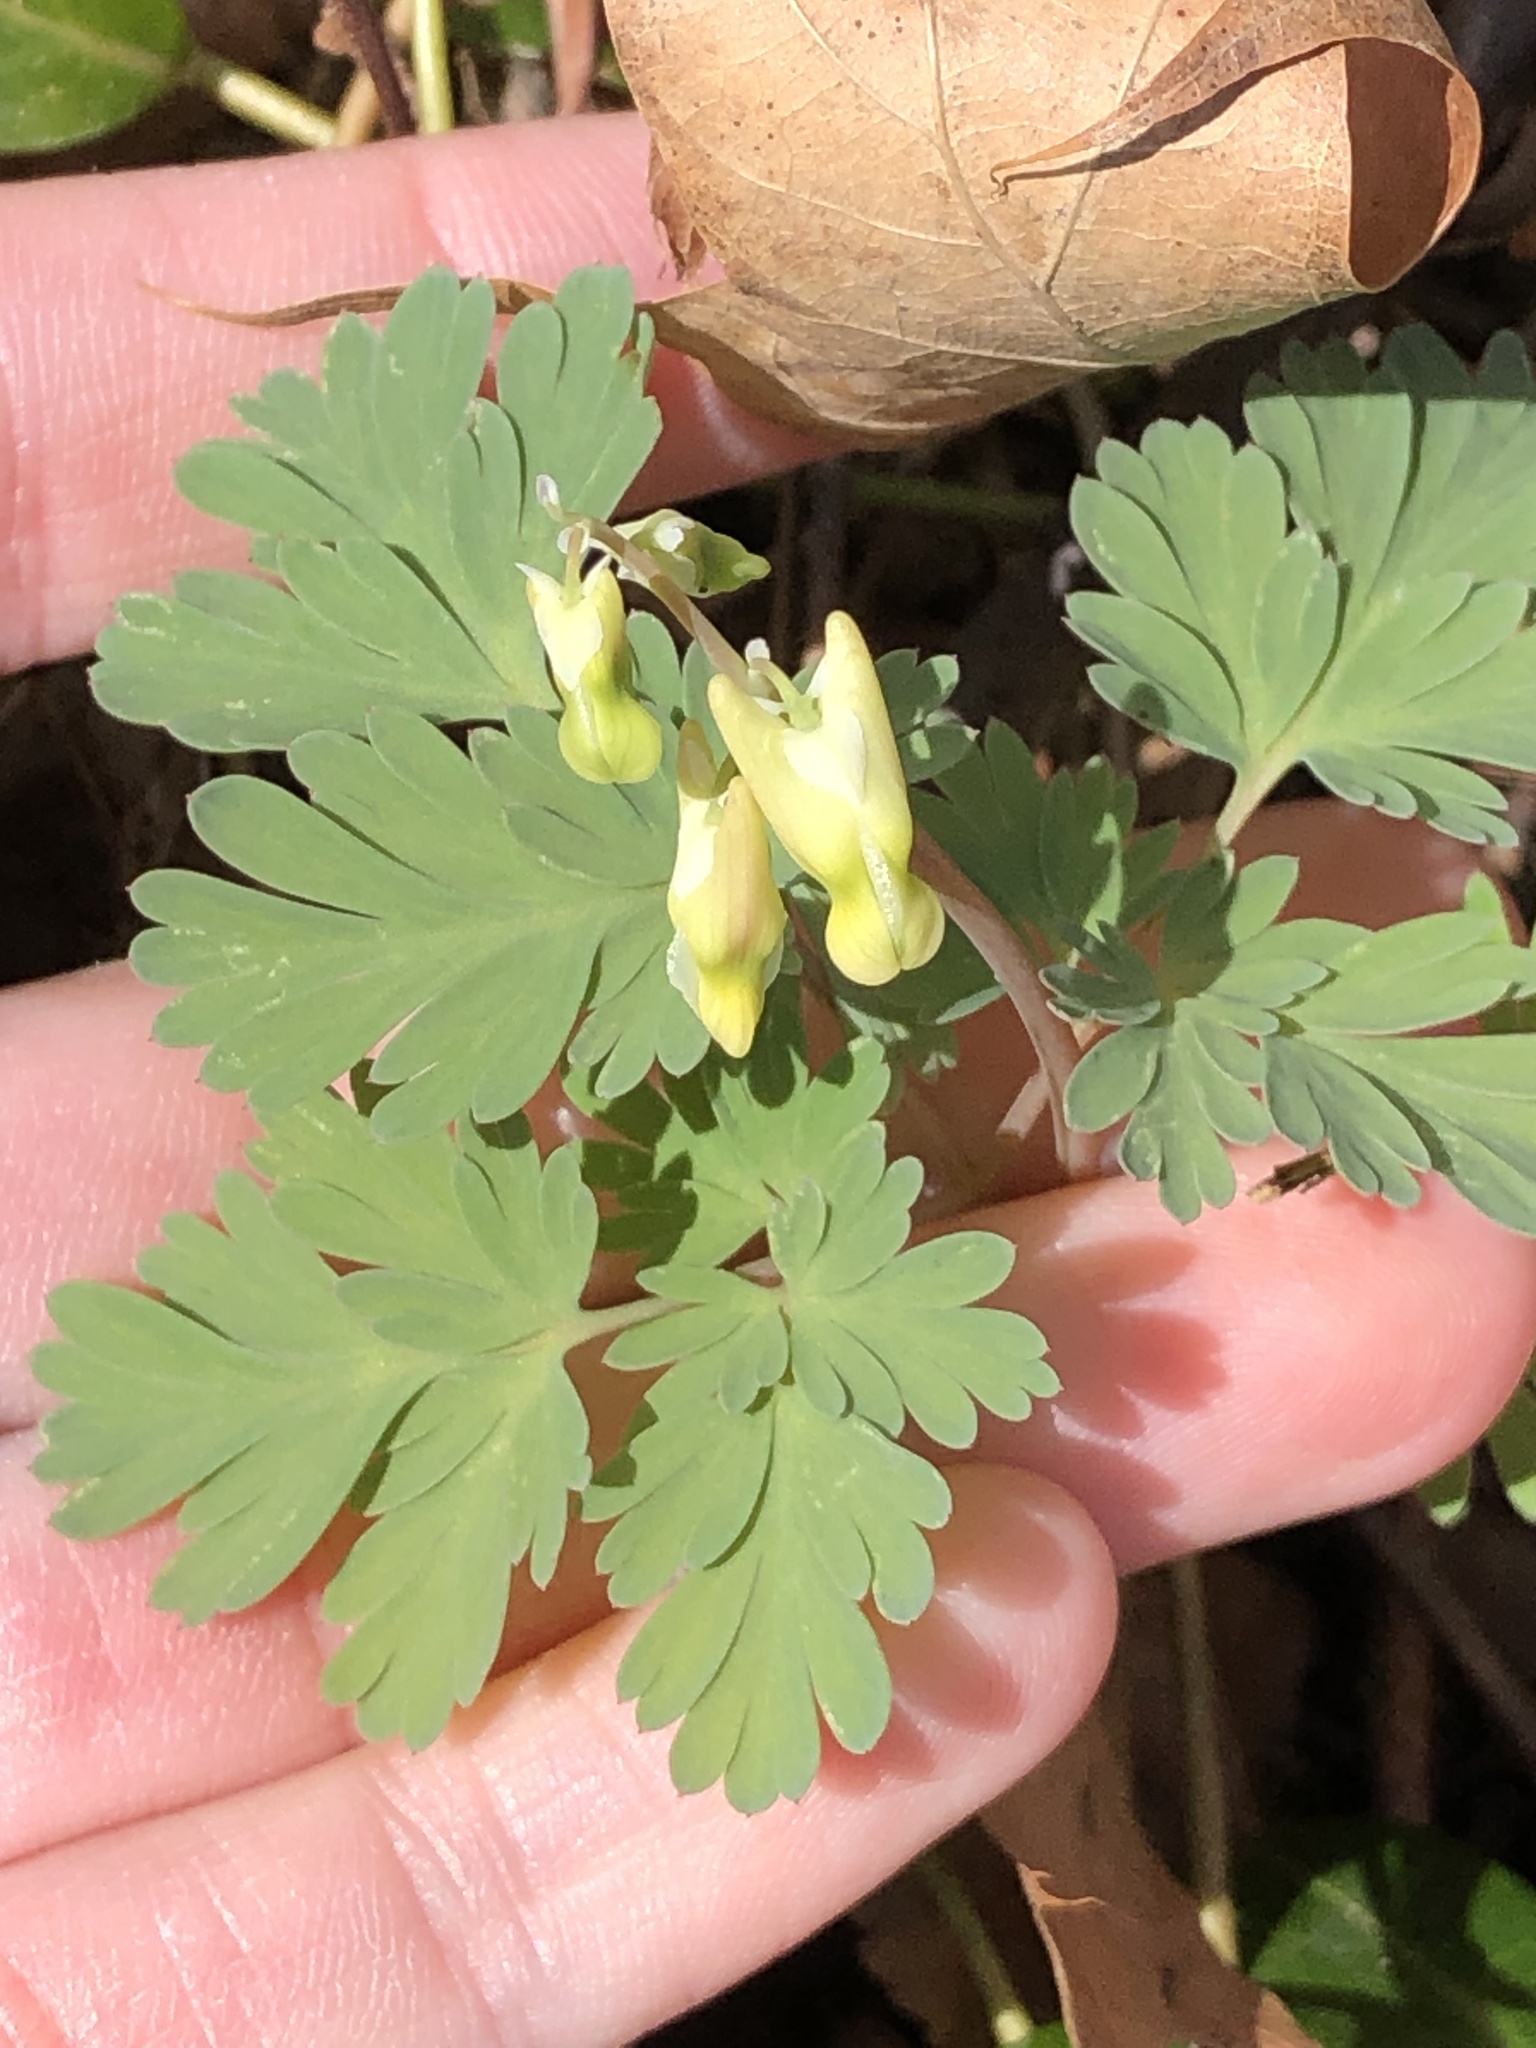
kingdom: Plantae
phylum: Tracheophyta
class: Magnoliopsida
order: Ranunculales
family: Papaveraceae
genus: Dicentra
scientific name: Dicentra cucullaria
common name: Dutchman's breeches
